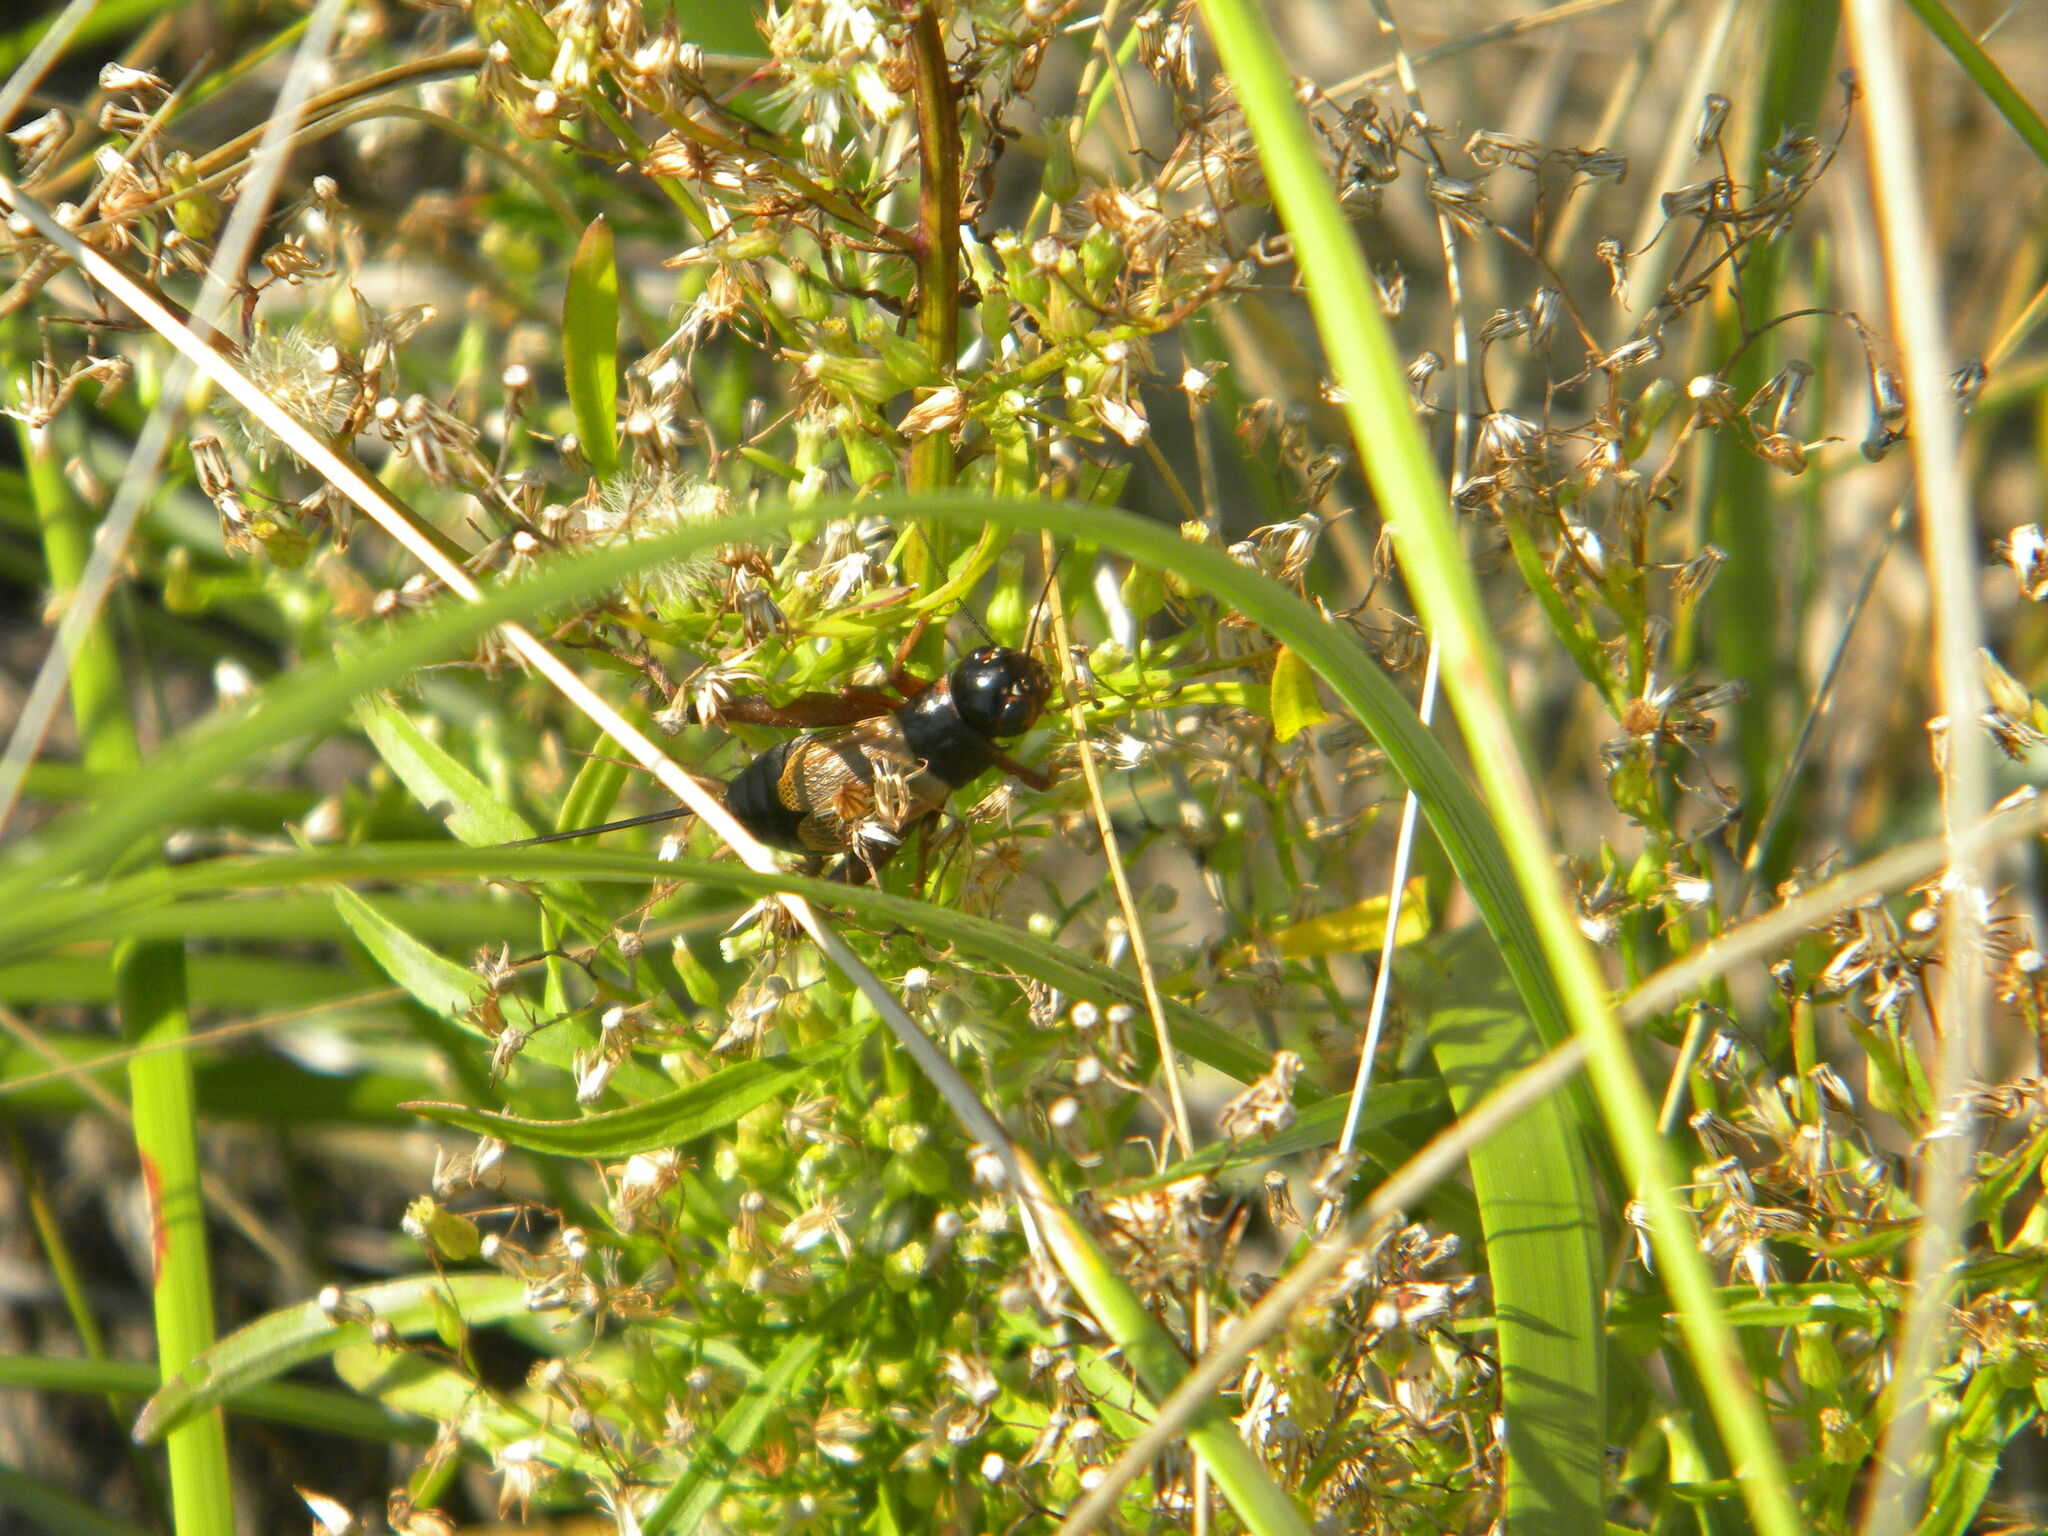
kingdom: Animalia
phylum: Arthropoda
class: Insecta
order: Orthoptera
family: Gryllidae
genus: Gryllus
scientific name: Gryllus pennsylvanicus
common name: Fall field cricket
